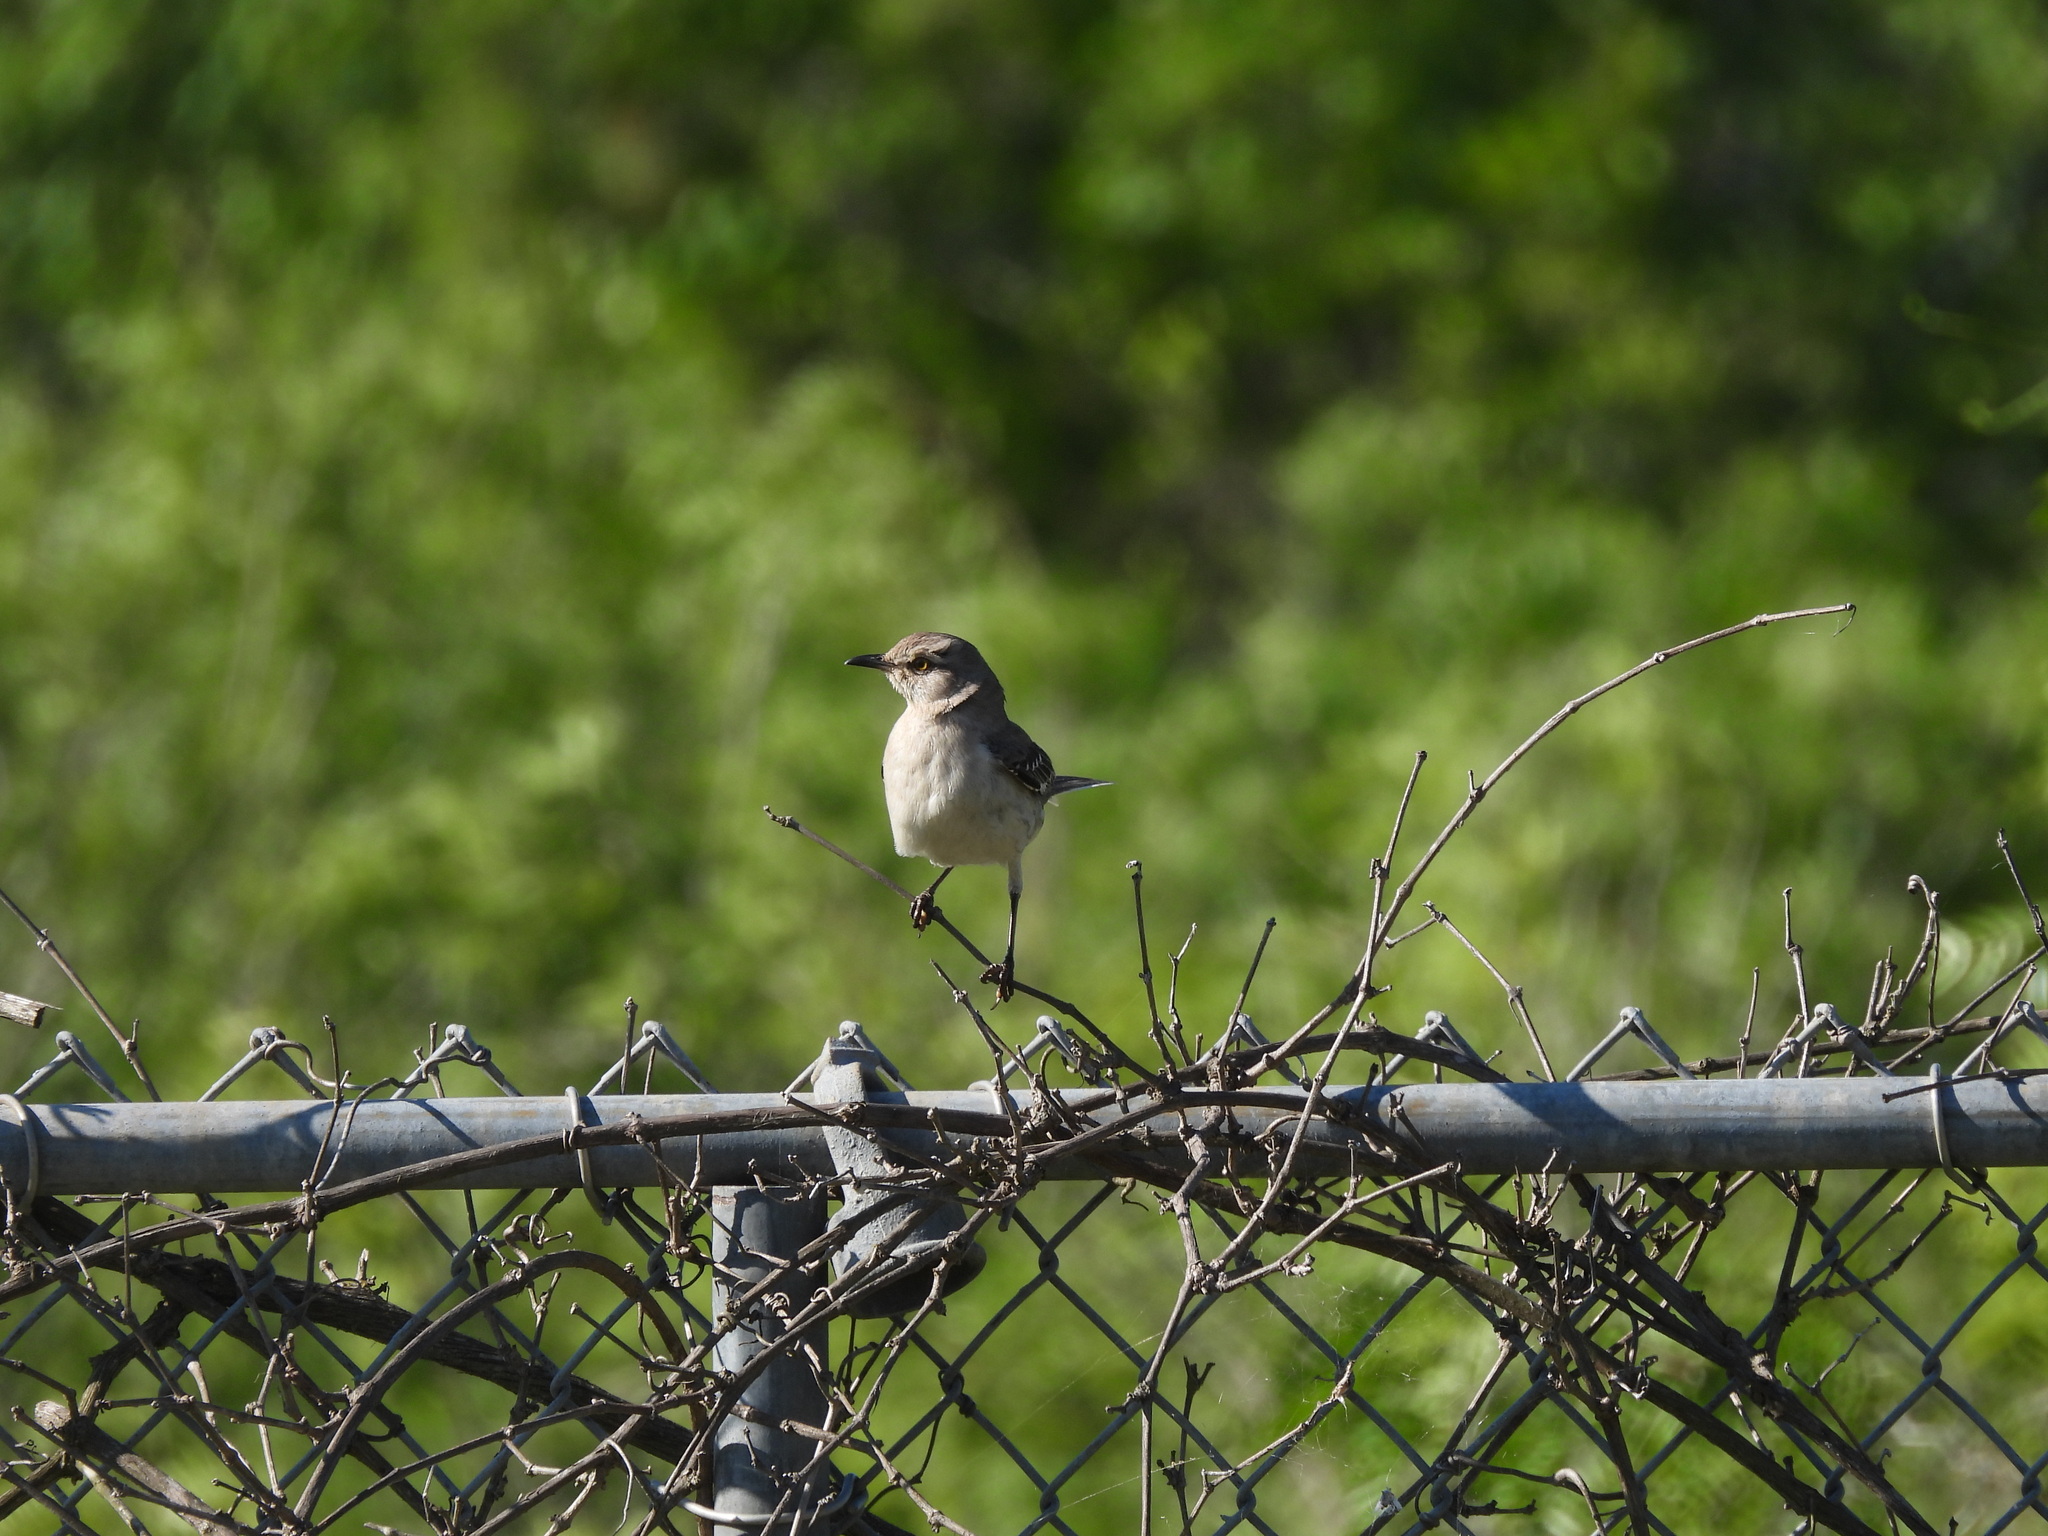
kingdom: Animalia
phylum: Chordata
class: Aves
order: Passeriformes
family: Mimidae
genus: Mimus
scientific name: Mimus polyglottos
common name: Northern mockingbird
